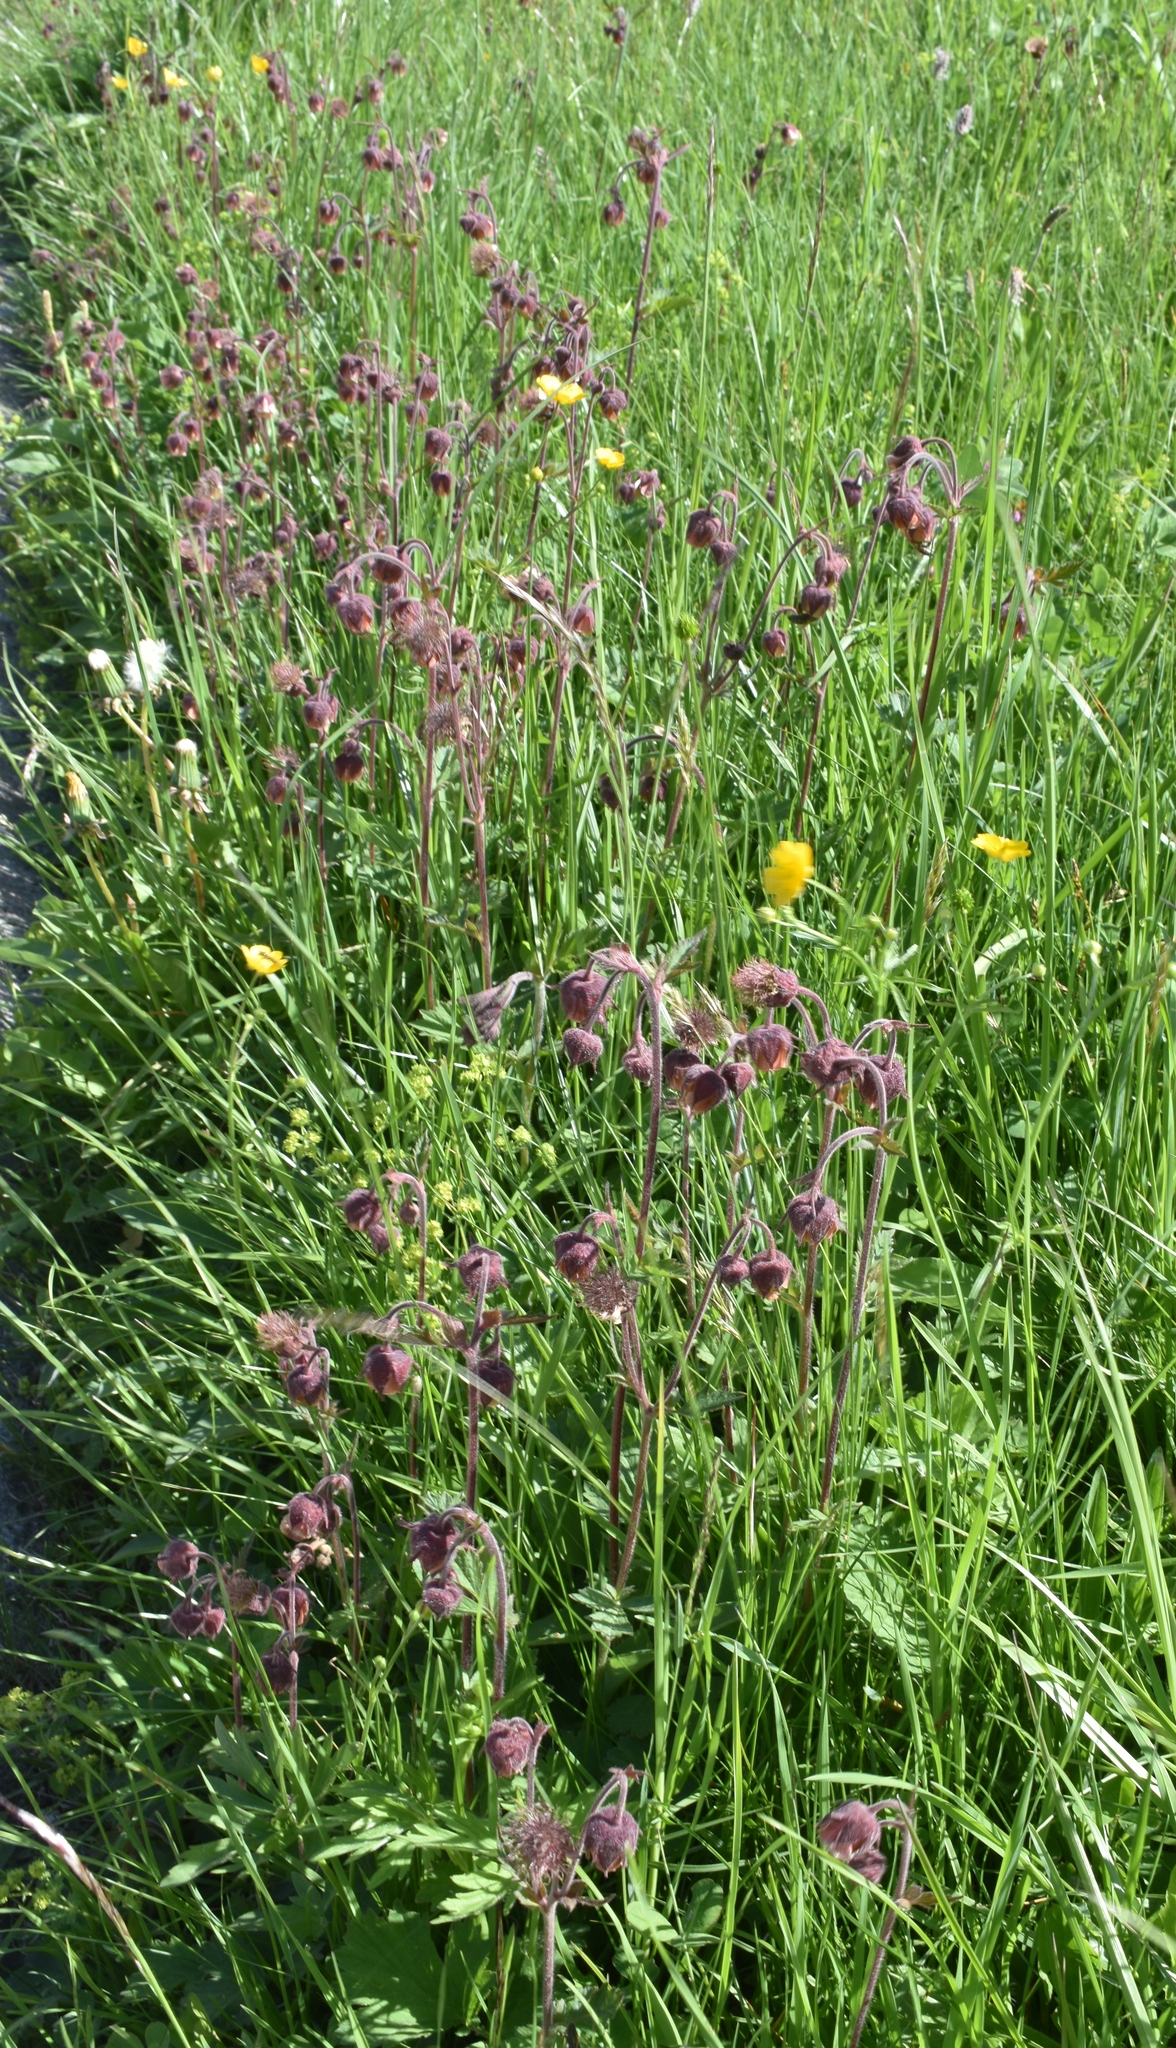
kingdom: Plantae
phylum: Tracheophyta
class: Magnoliopsida
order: Rosales
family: Rosaceae
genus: Geum
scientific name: Geum rivale
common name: Water avens
